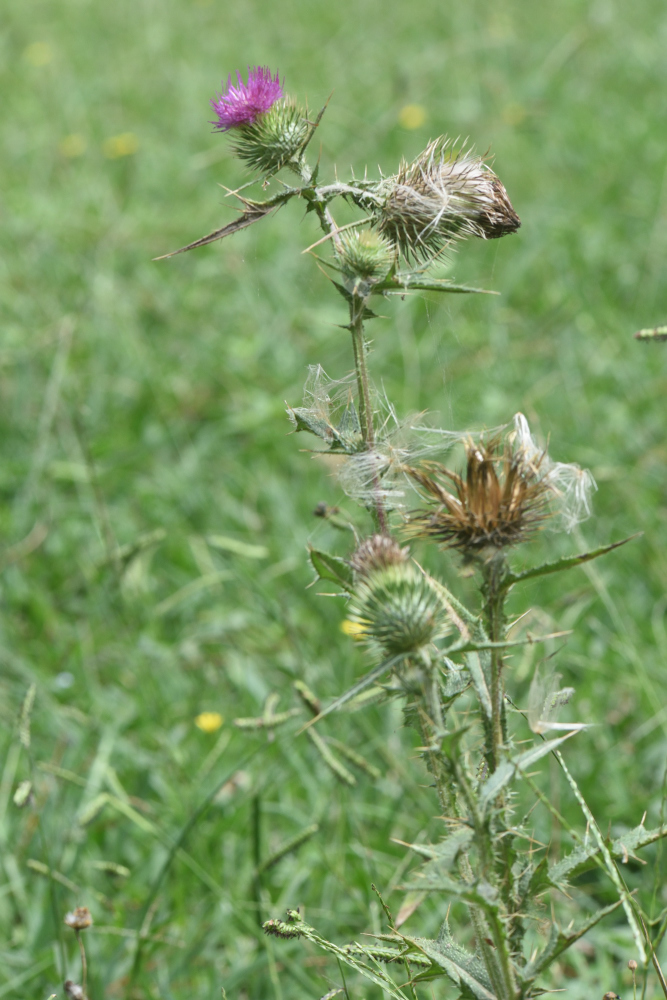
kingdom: Plantae
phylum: Tracheophyta
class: Magnoliopsida
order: Asterales
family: Asteraceae
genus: Cirsium
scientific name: Cirsium vulgare
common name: Bull thistle
